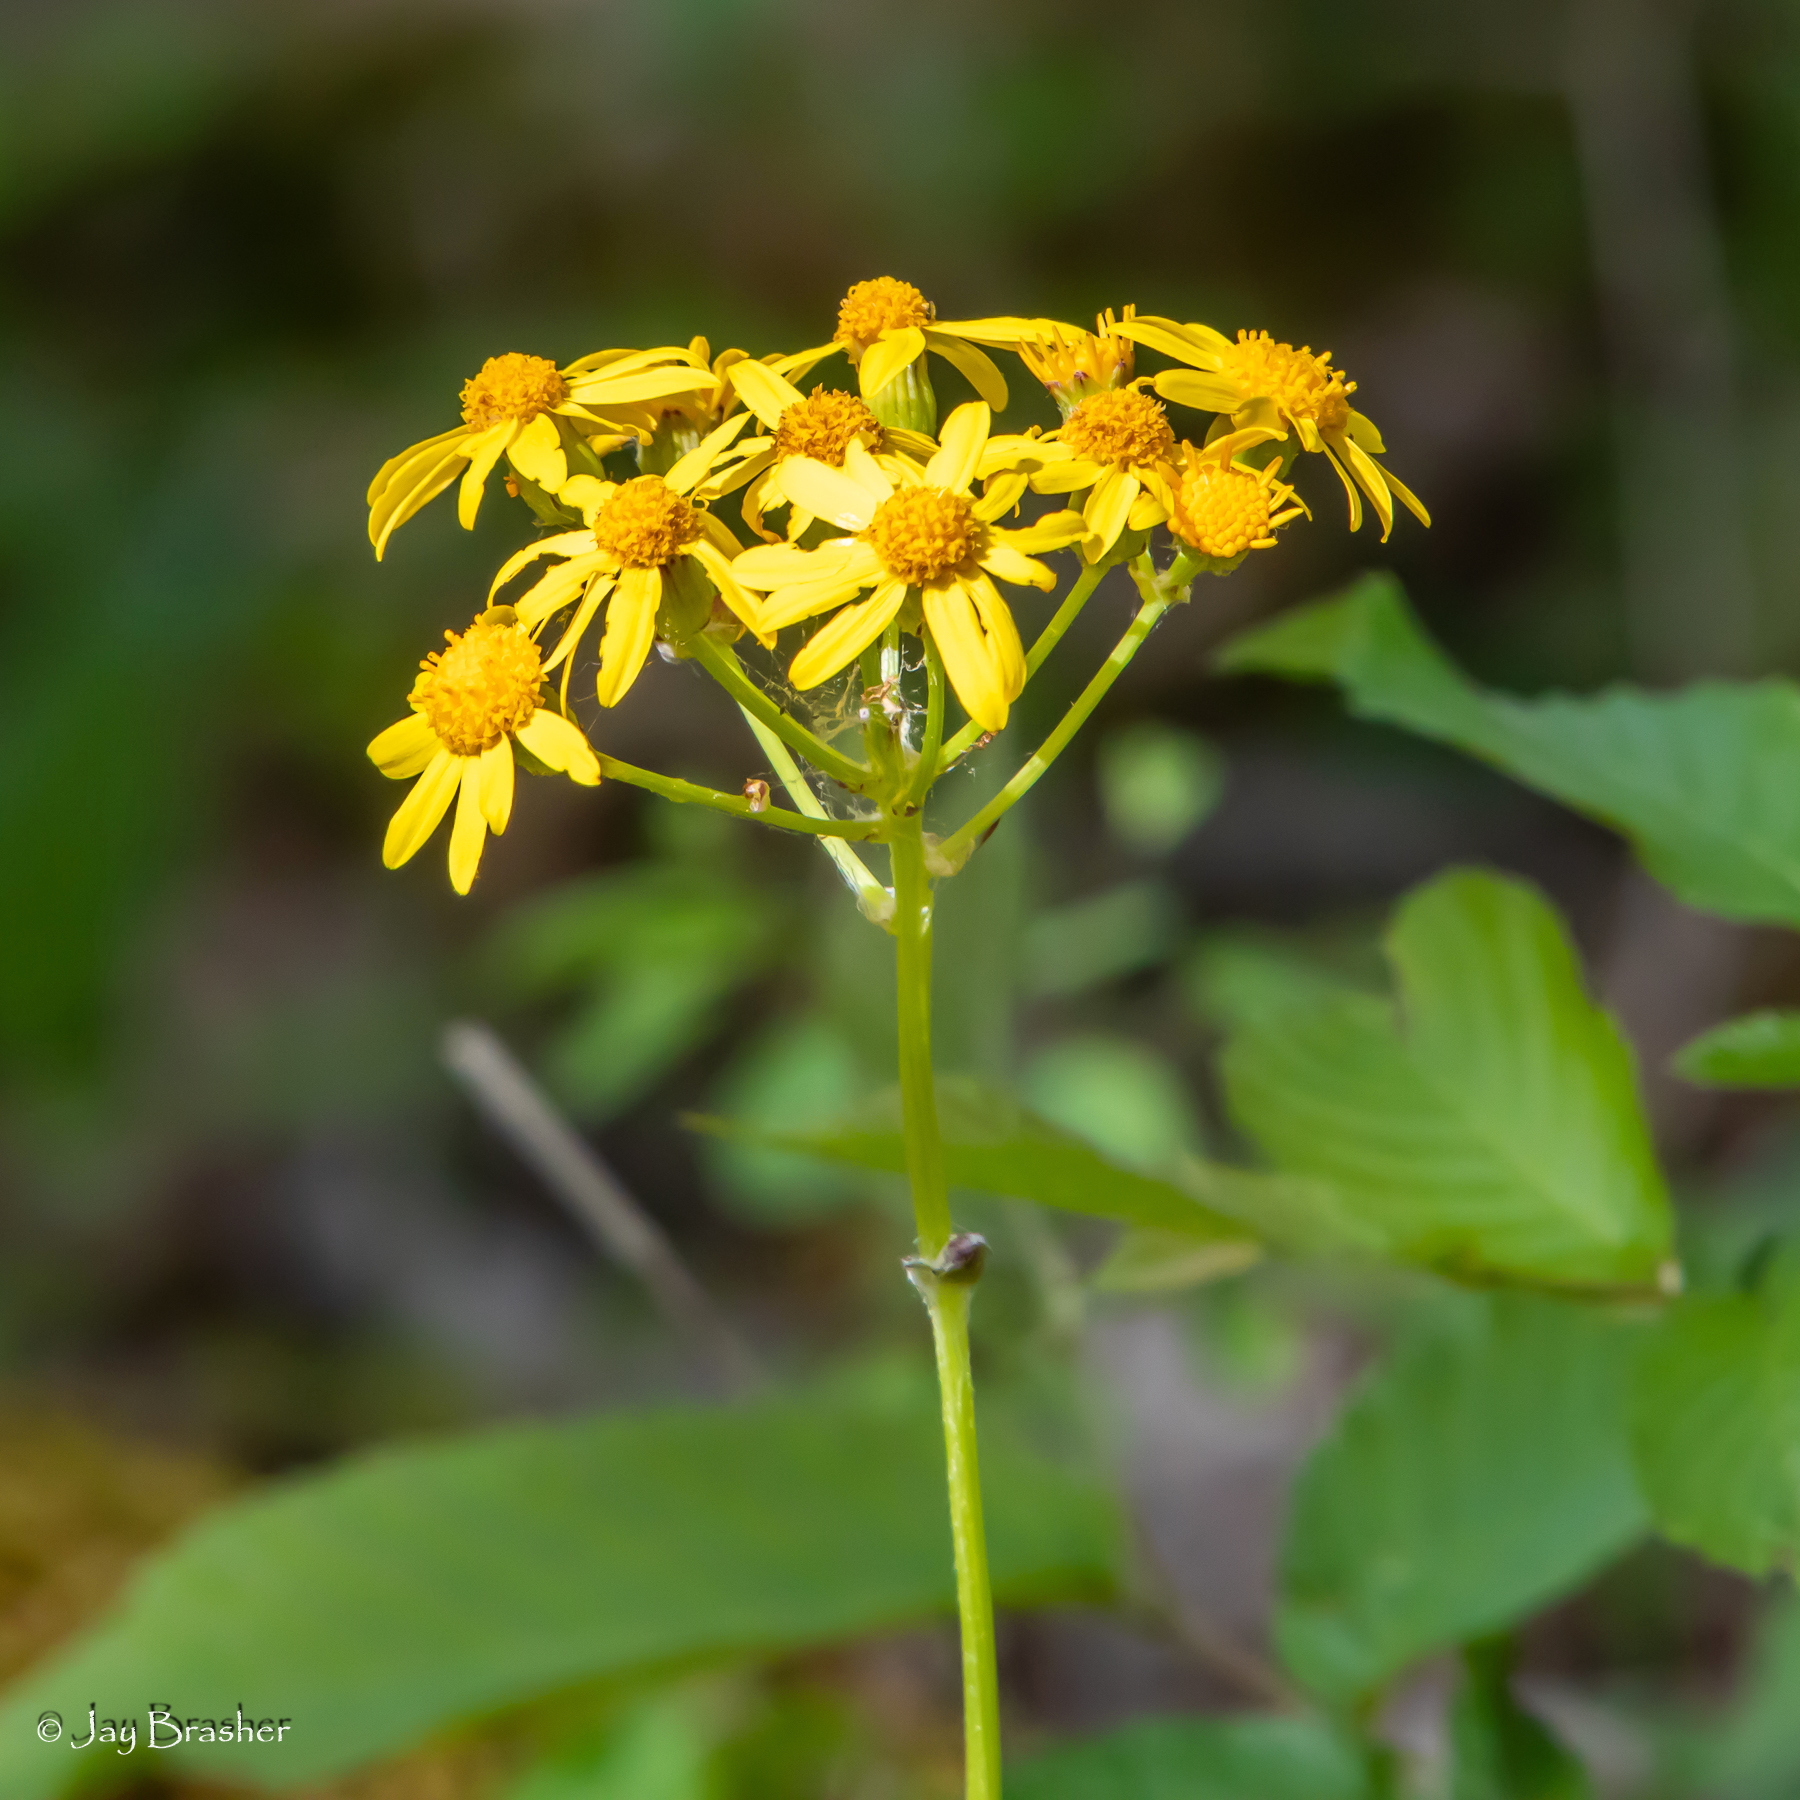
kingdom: Plantae
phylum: Tracheophyta
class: Magnoliopsida
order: Asterales
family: Asteraceae
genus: Packera
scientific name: Packera obovata
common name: Round-leaf ragwort
